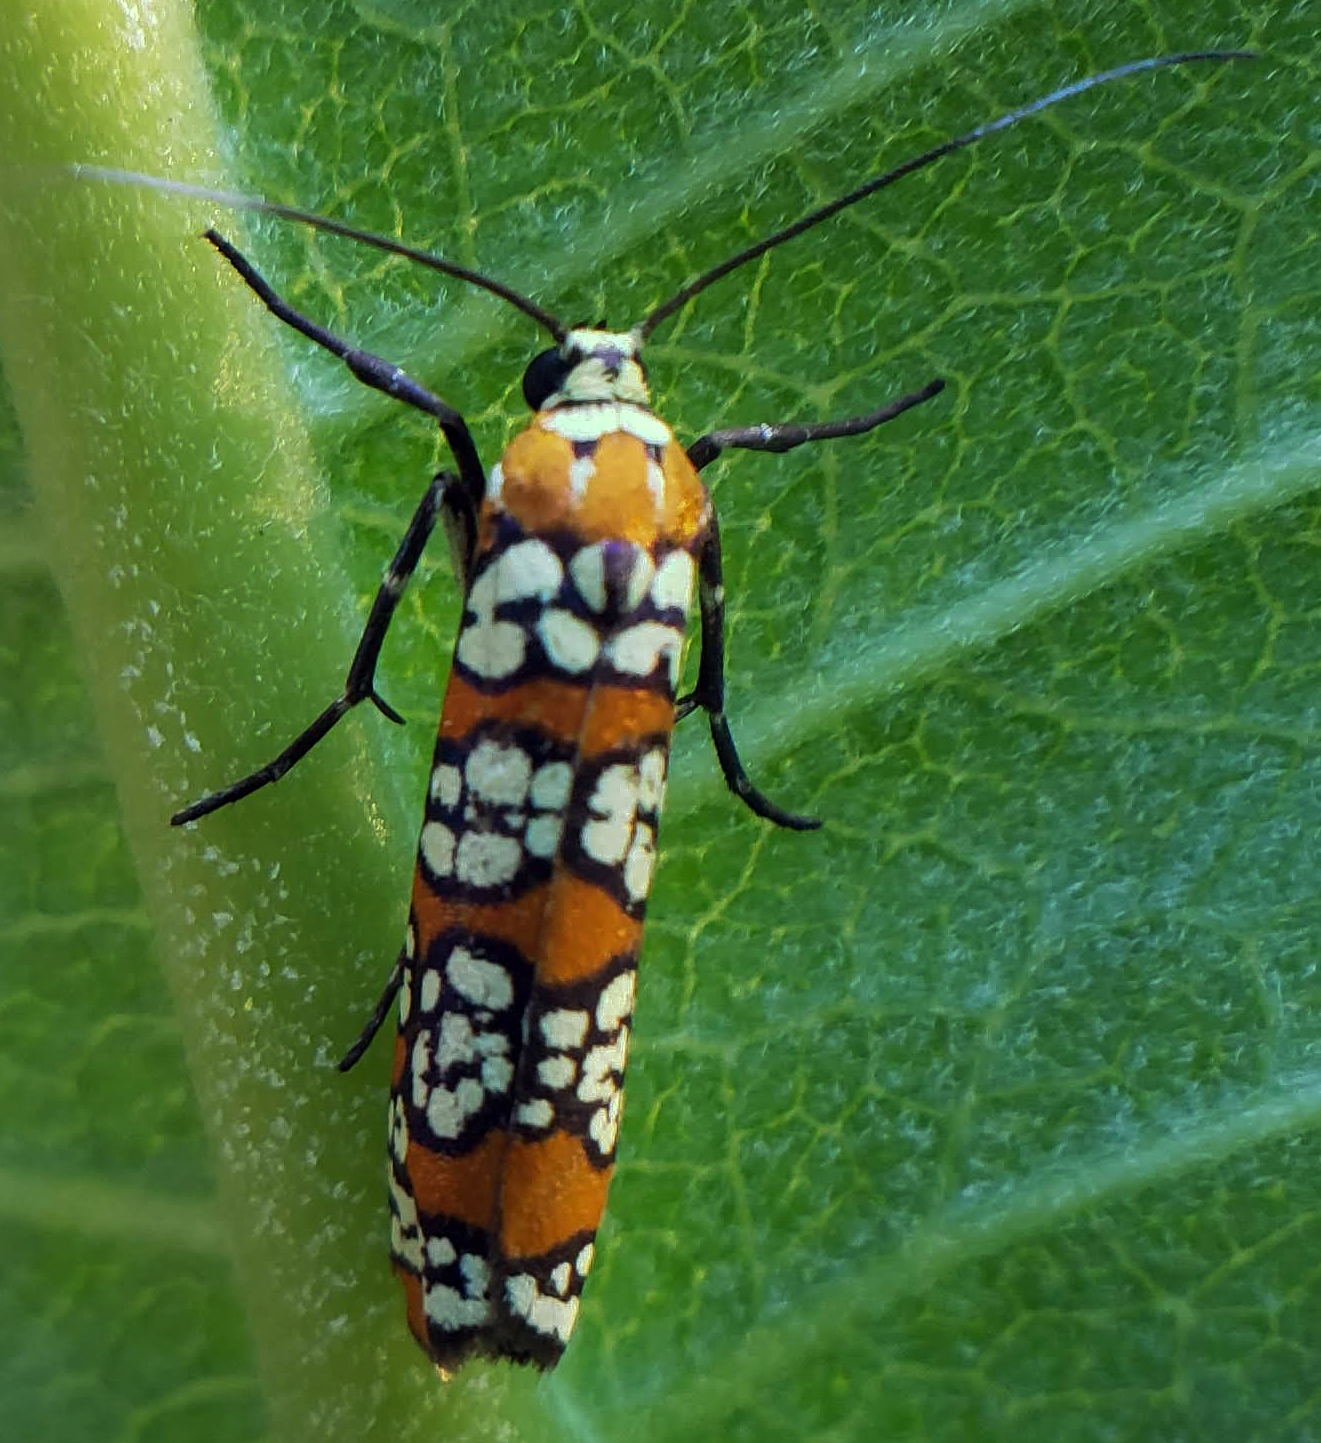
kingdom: Animalia
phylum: Arthropoda
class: Insecta
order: Lepidoptera
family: Attevidae
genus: Atteva
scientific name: Atteva punctella
